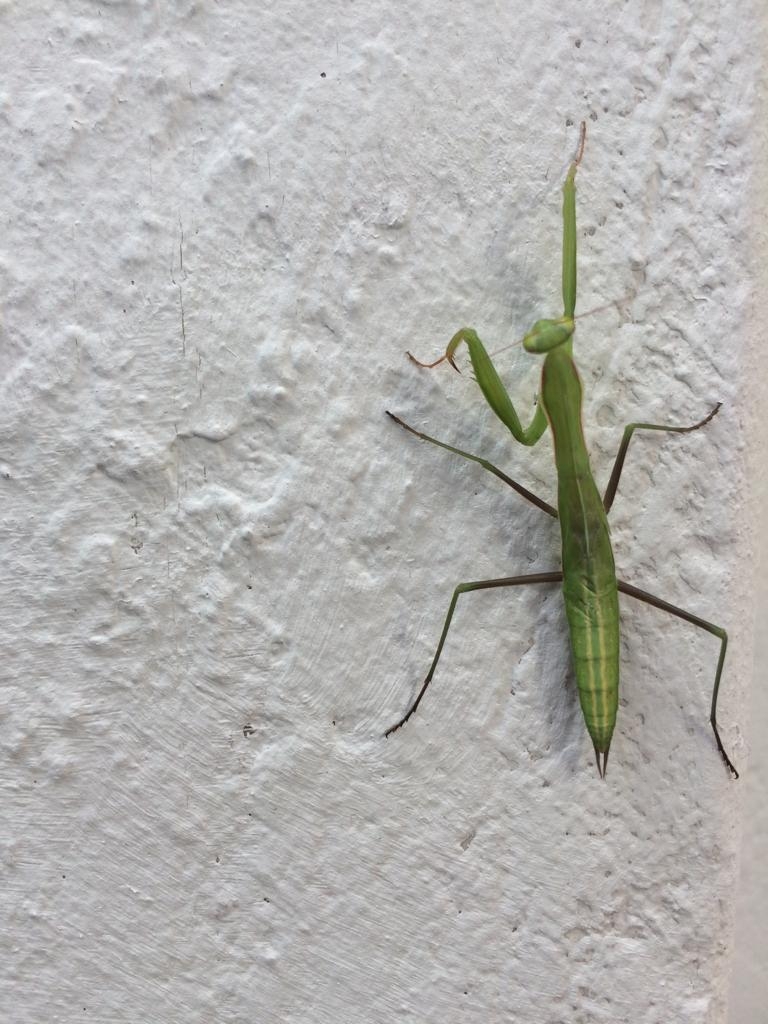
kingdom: Animalia
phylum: Arthropoda
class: Insecta
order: Mantodea
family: Mantidae
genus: Mantis
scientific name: Mantis religiosa
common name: Praying mantis
